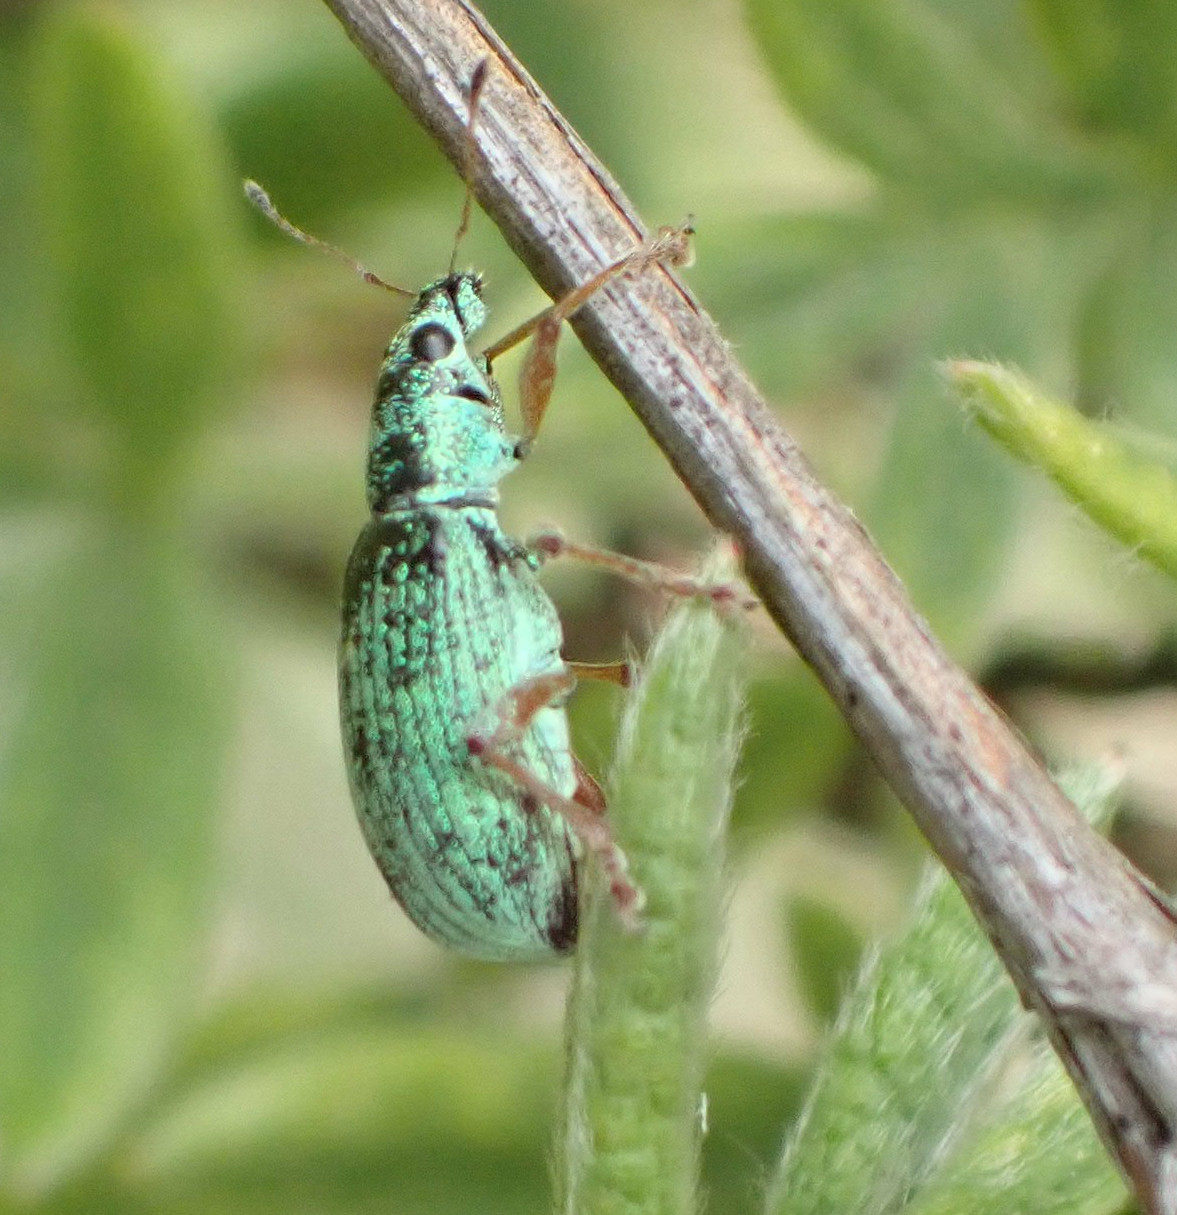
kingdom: Animalia
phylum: Arthropoda
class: Insecta
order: Coleoptera
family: Curculionidae
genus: Polydrusus
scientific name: Polydrusus formosus
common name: Weevil
